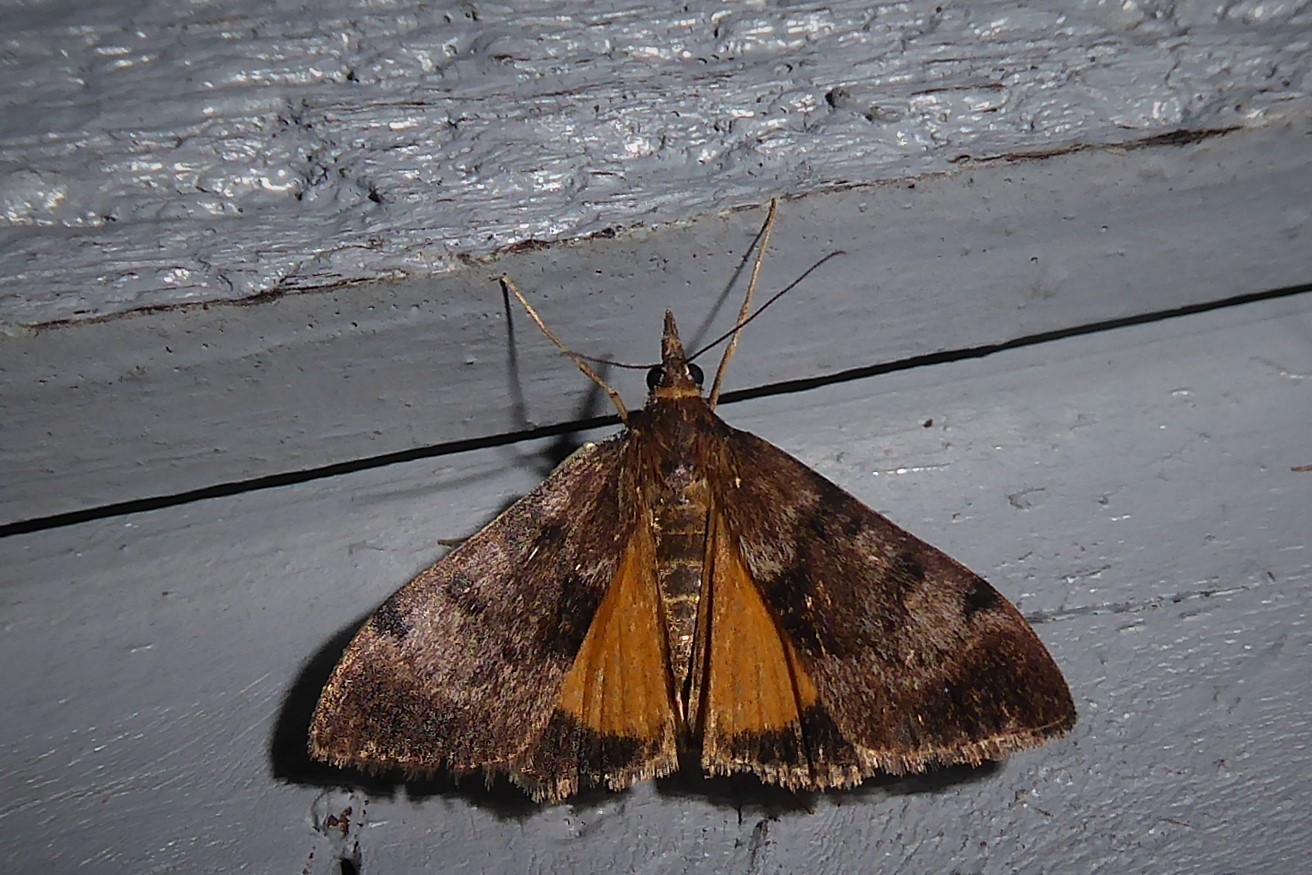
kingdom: Animalia
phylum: Arthropoda
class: Insecta
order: Lepidoptera
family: Crambidae
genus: Uresiphita
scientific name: Uresiphita
